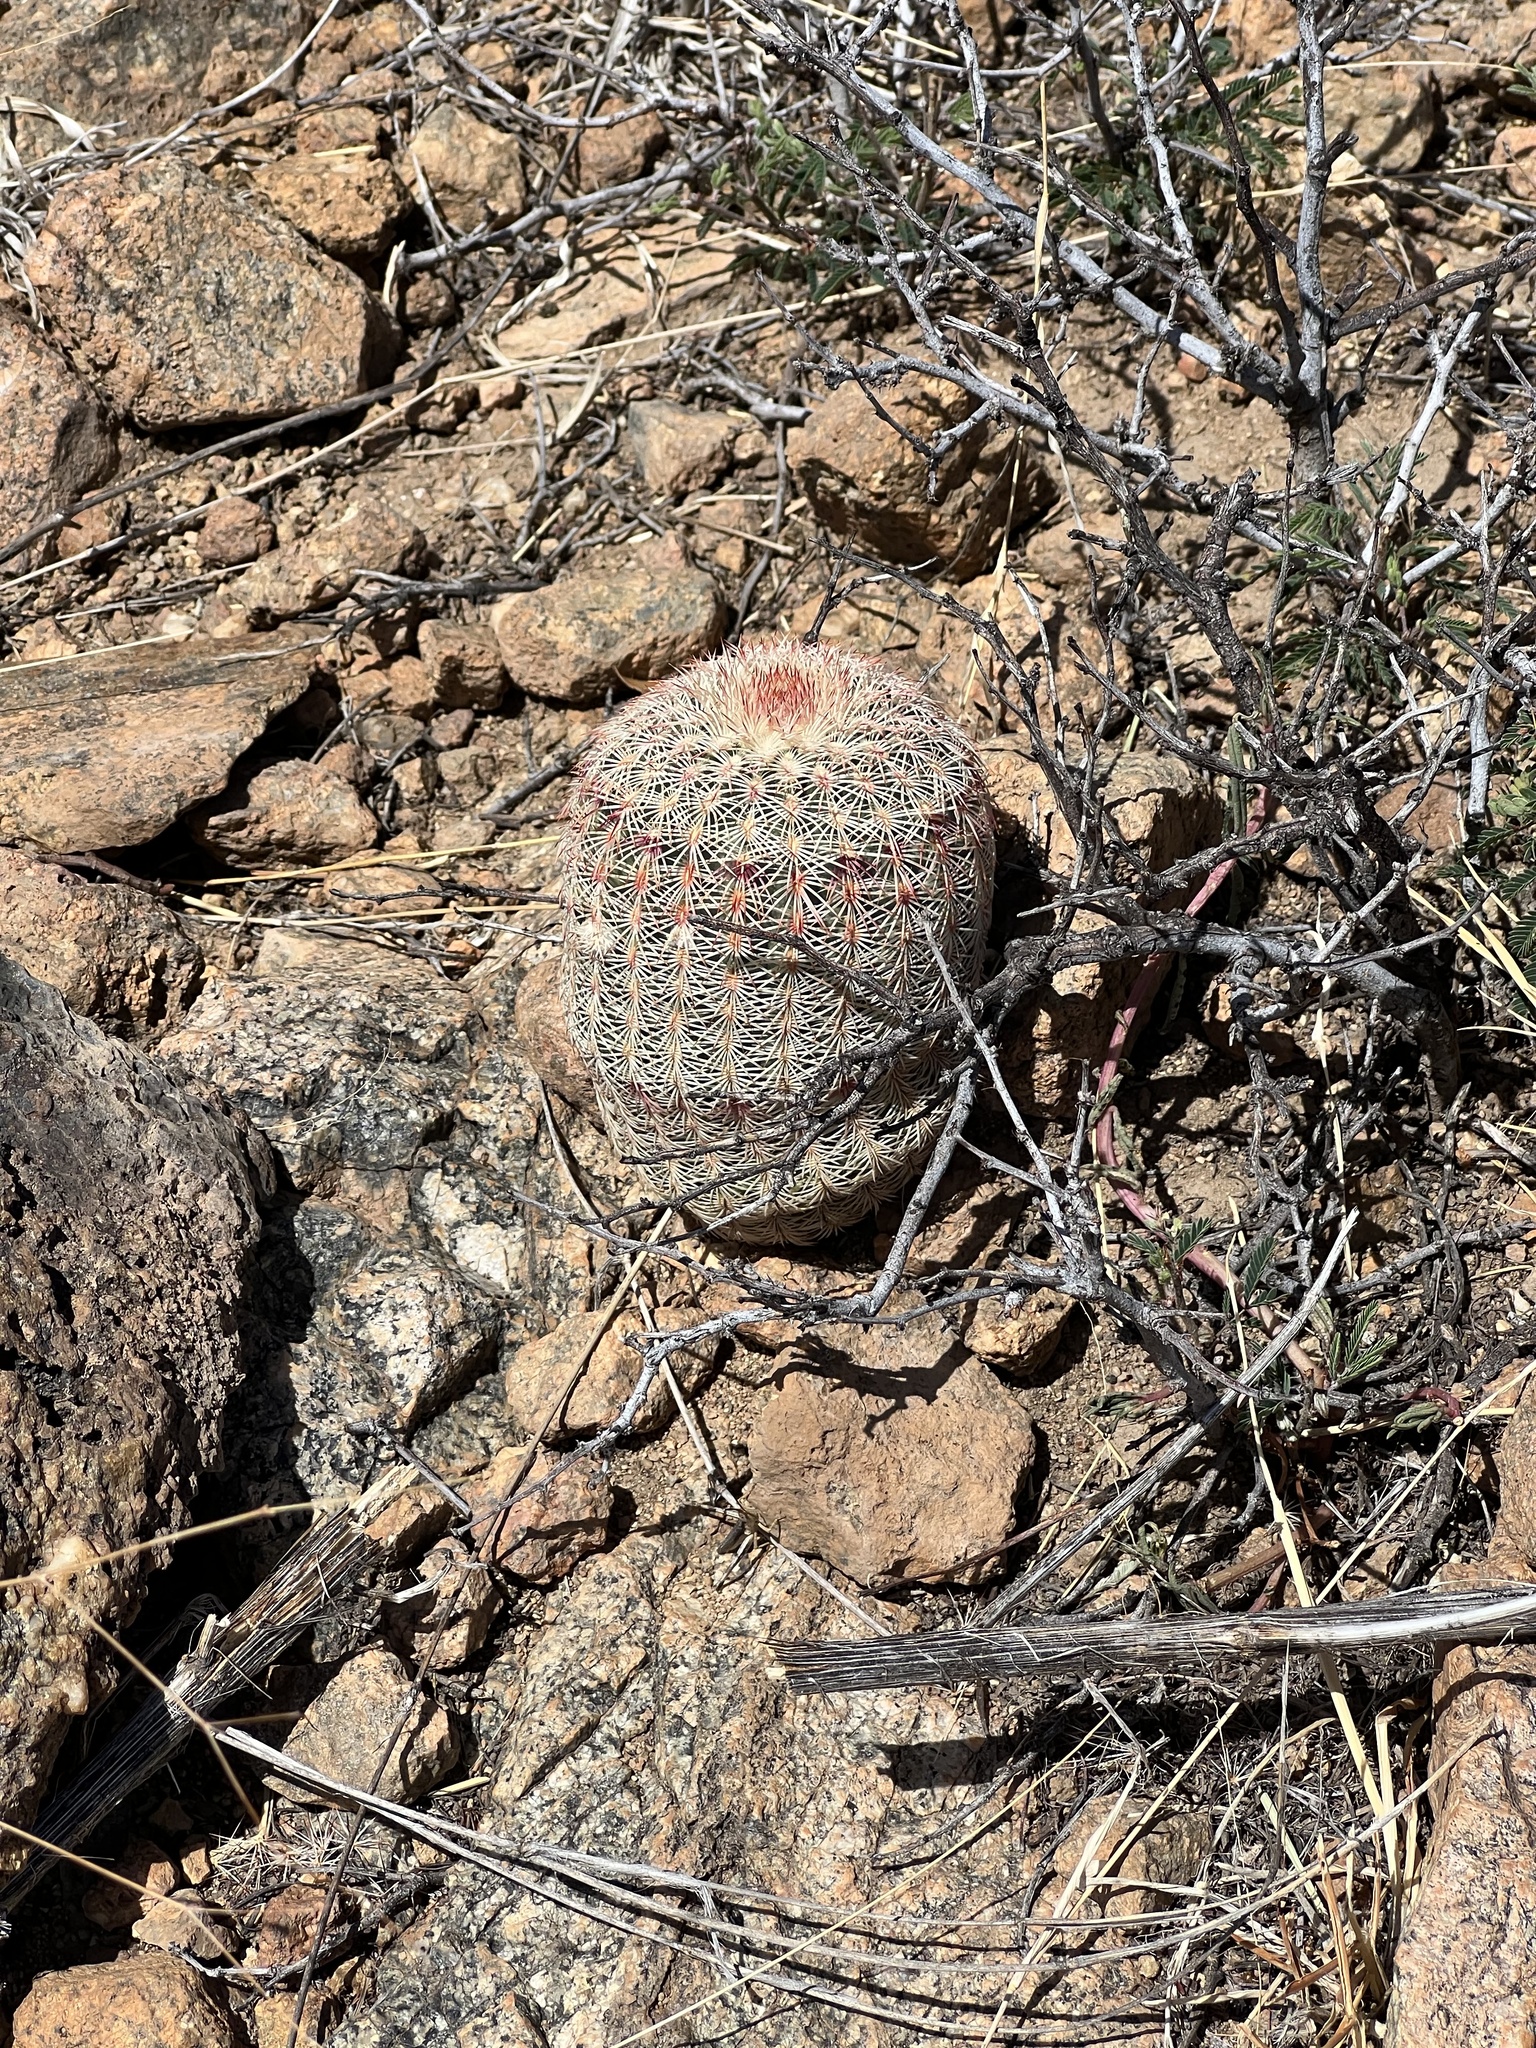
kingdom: Plantae
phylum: Tracheophyta
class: Magnoliopsida
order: Caryophyllales
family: Cactaceae
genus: Echinocereus
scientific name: Echinocereus rigidissimus
